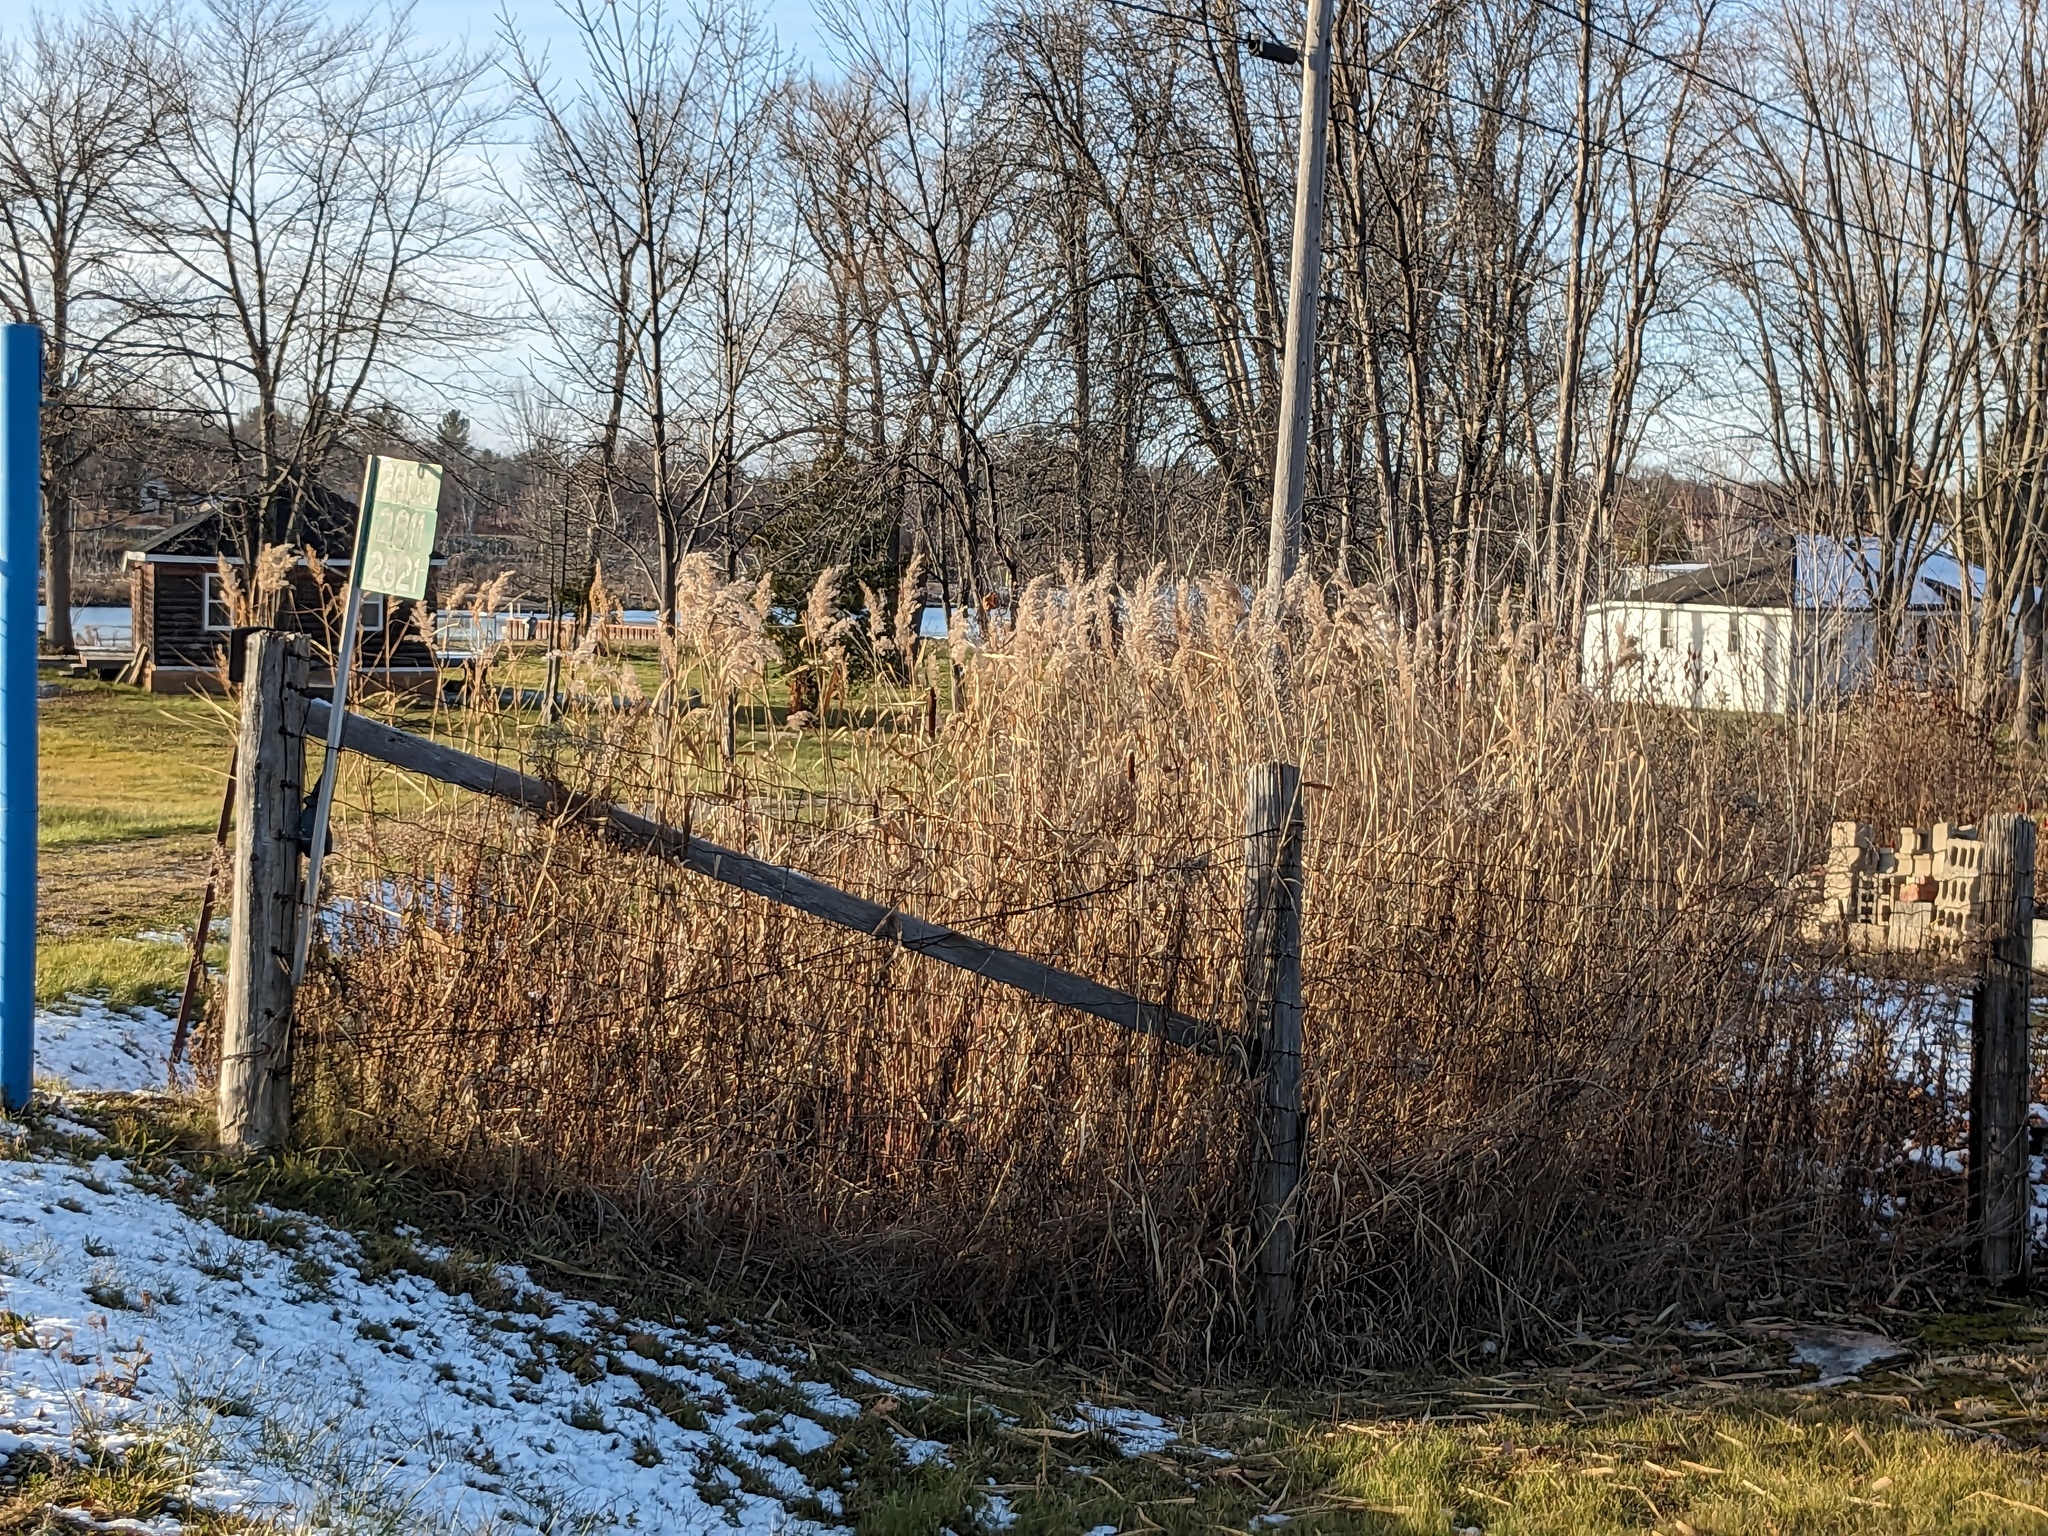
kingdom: Plantae
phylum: Tracheophyta
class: Liliopsida
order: Poales
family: Poaceae
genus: Phragmites
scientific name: Phragmites australis
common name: Common reed
